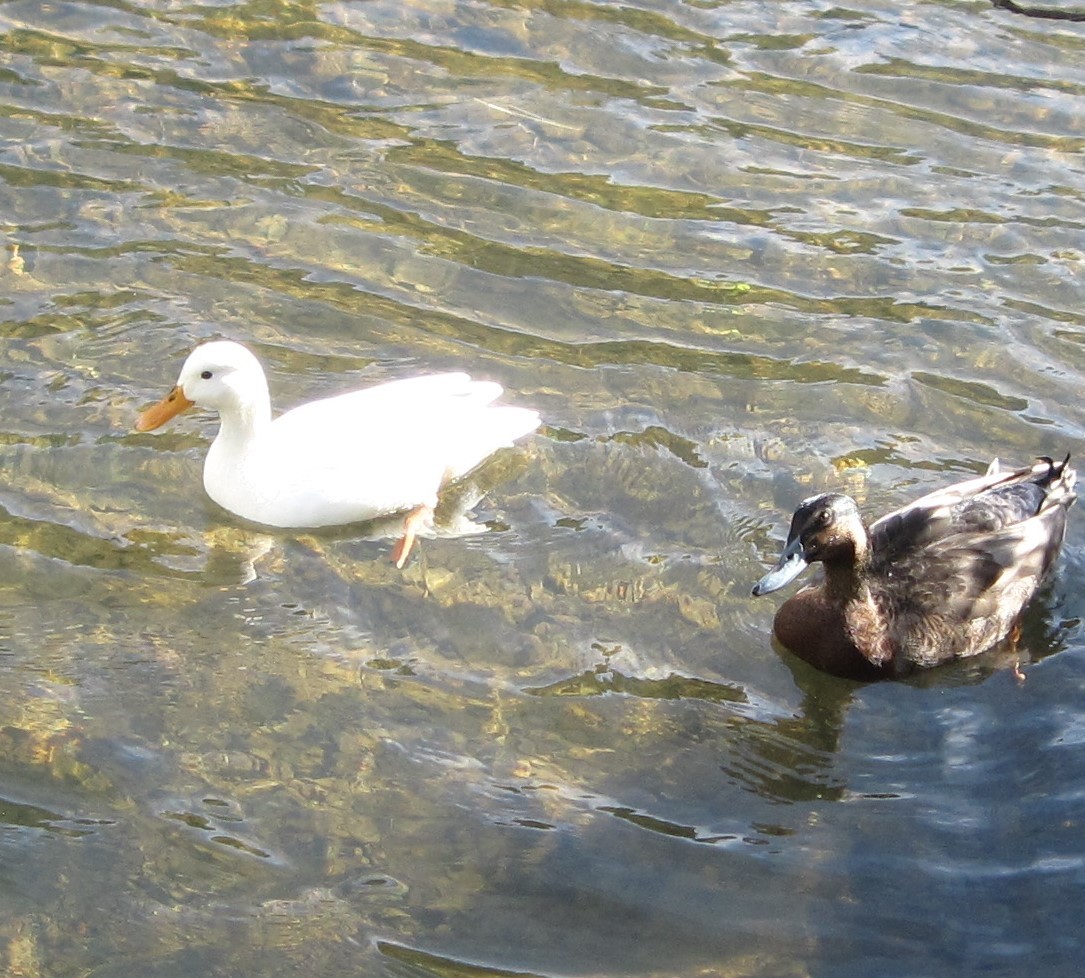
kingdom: Animalia
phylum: Chordata
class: Aves
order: Anseriformes
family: Anatidae
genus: Anas
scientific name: Anas platyrhynchos
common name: Mallard
